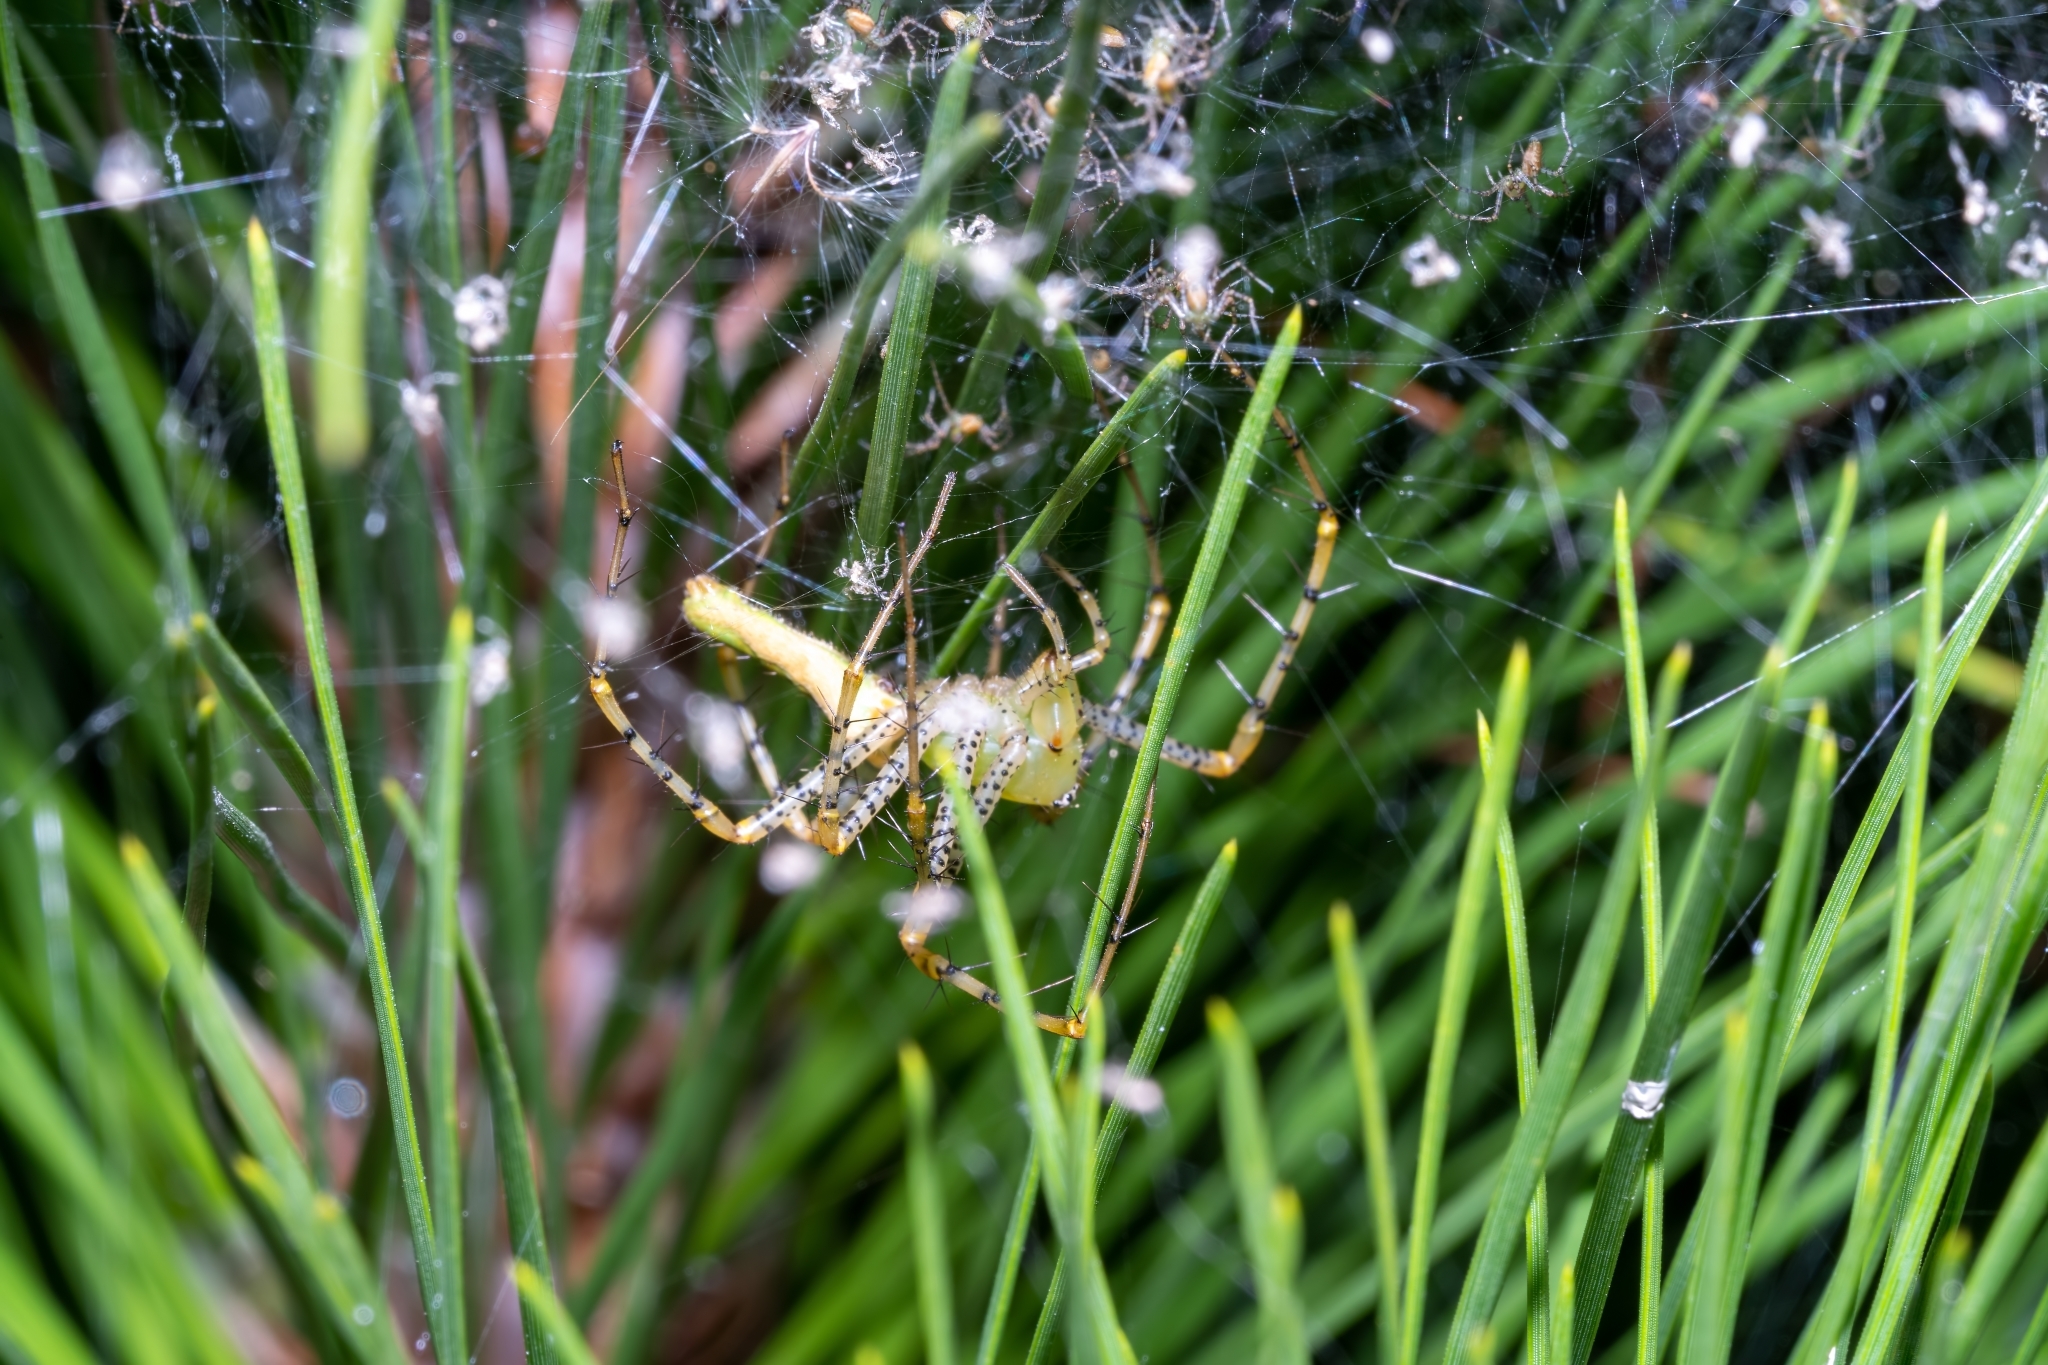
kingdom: Animalia
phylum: Arthropoda
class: Arachnida
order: Araneae
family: Oxyopidae
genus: Peucetia
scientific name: Peucetia viridans
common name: Lynx spiders
